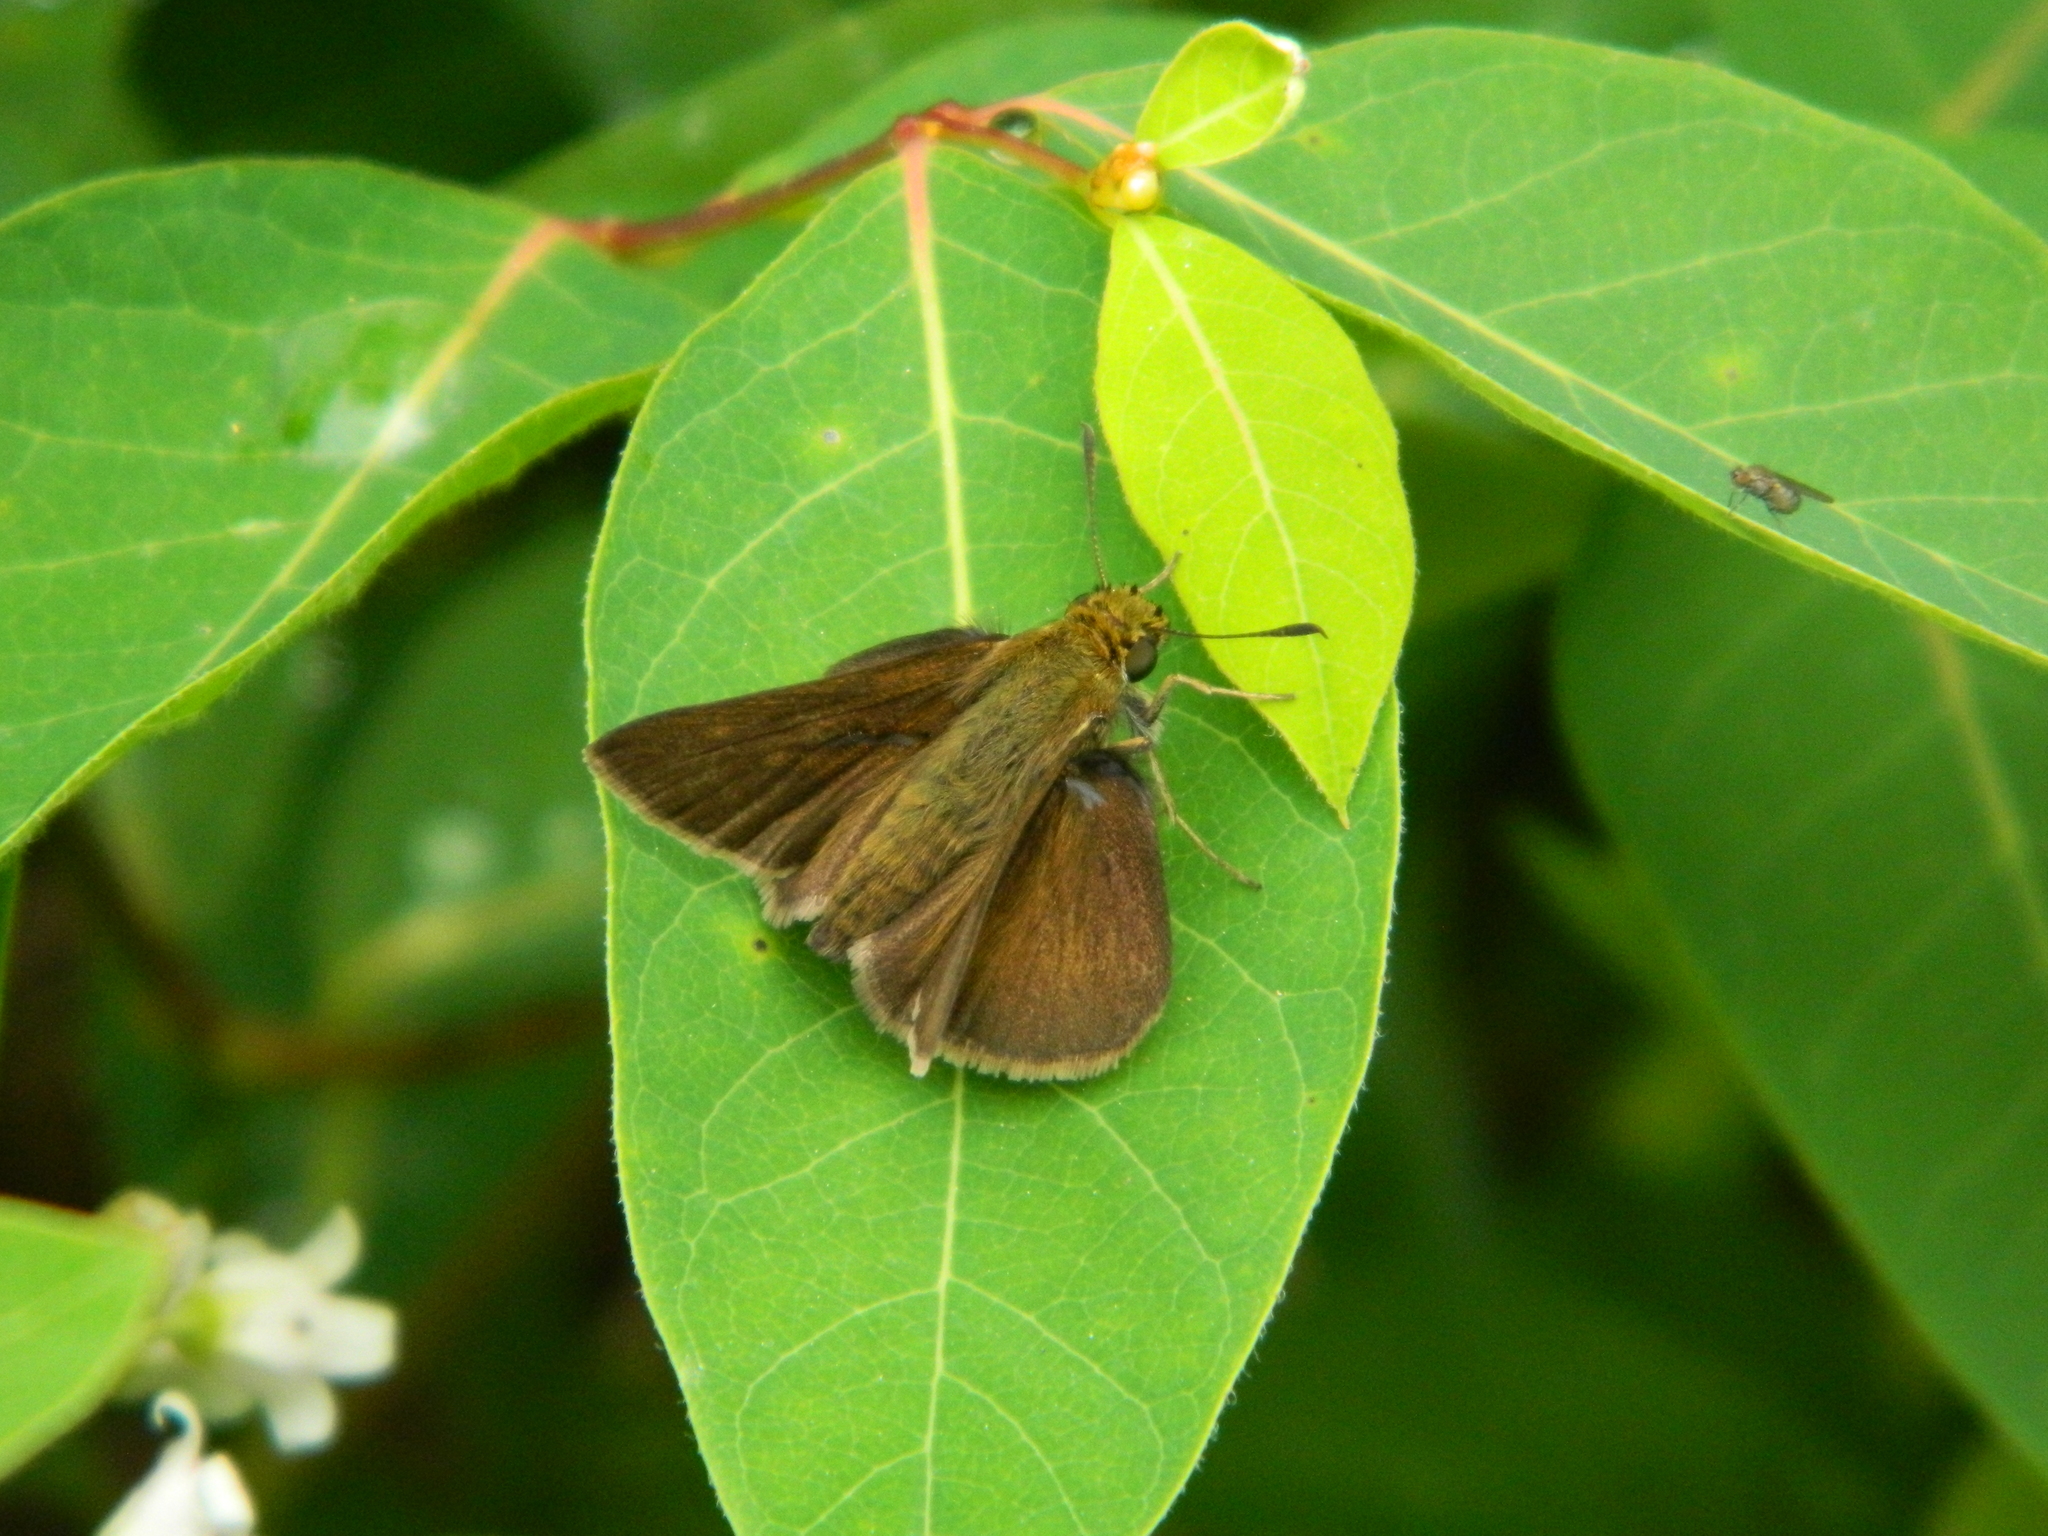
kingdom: Animalia
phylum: Arthropoda
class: Insecta
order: Lepidoptera
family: Hesperiidae
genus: Euphyes
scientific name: Euphyes vestris
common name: Dun skipper
